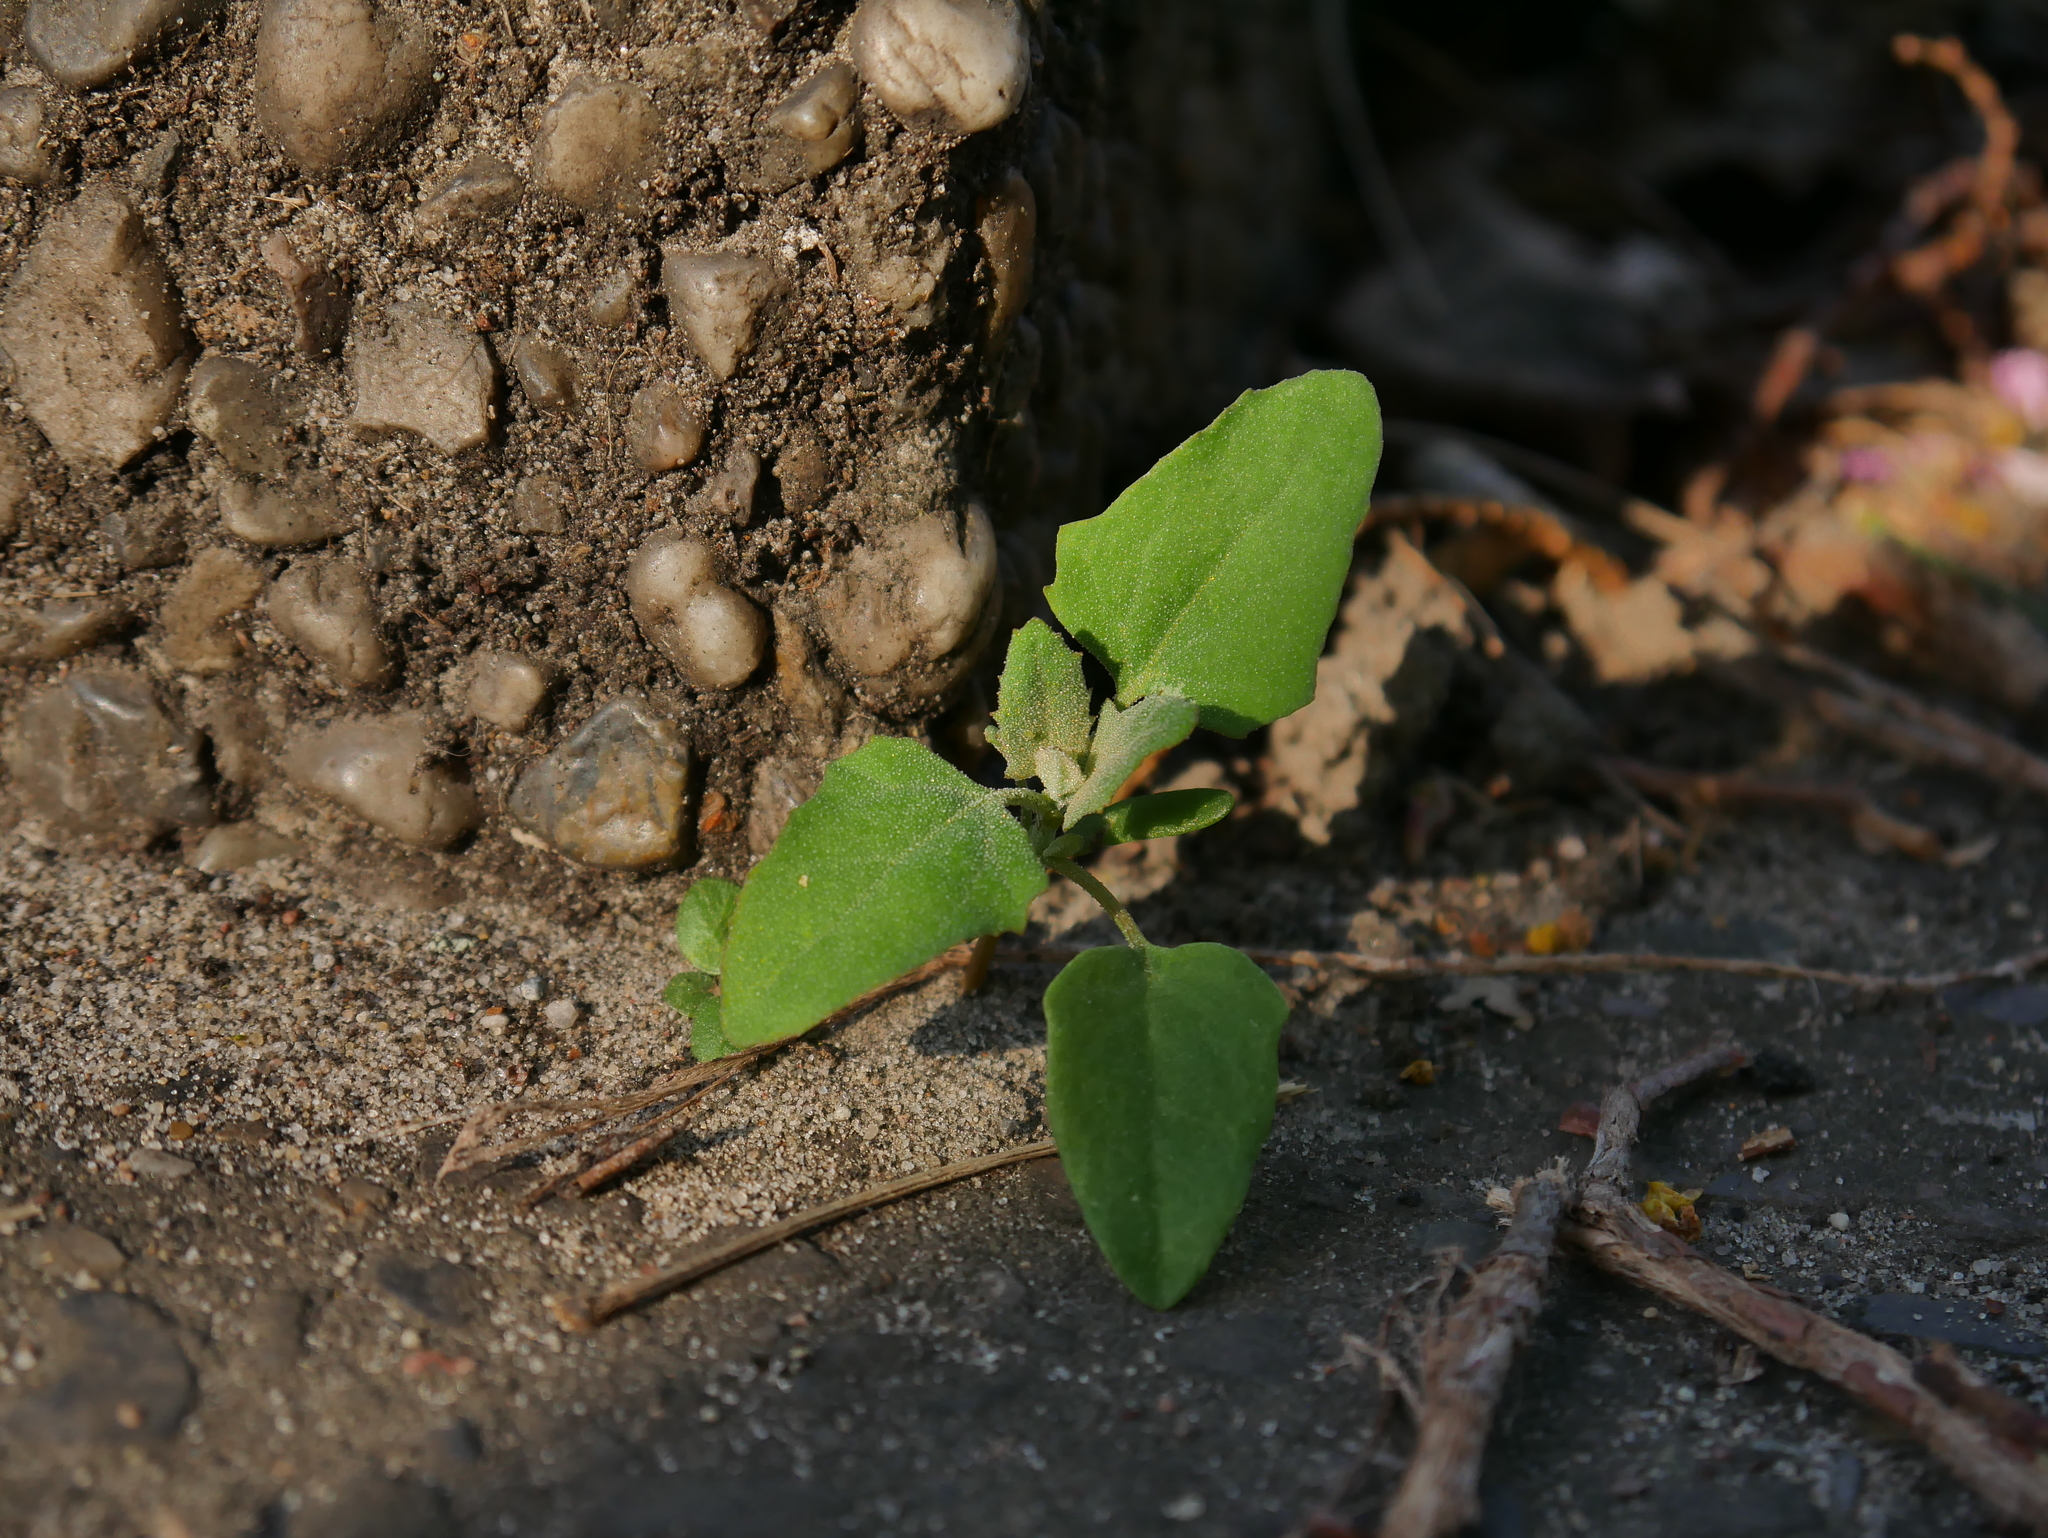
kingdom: Plantae
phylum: Tracheophyta
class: Magnoliopsida
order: Caryophyllales
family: Amaranthaceae
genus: Chenopodium
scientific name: Chenopodium album
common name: Fat-hen
